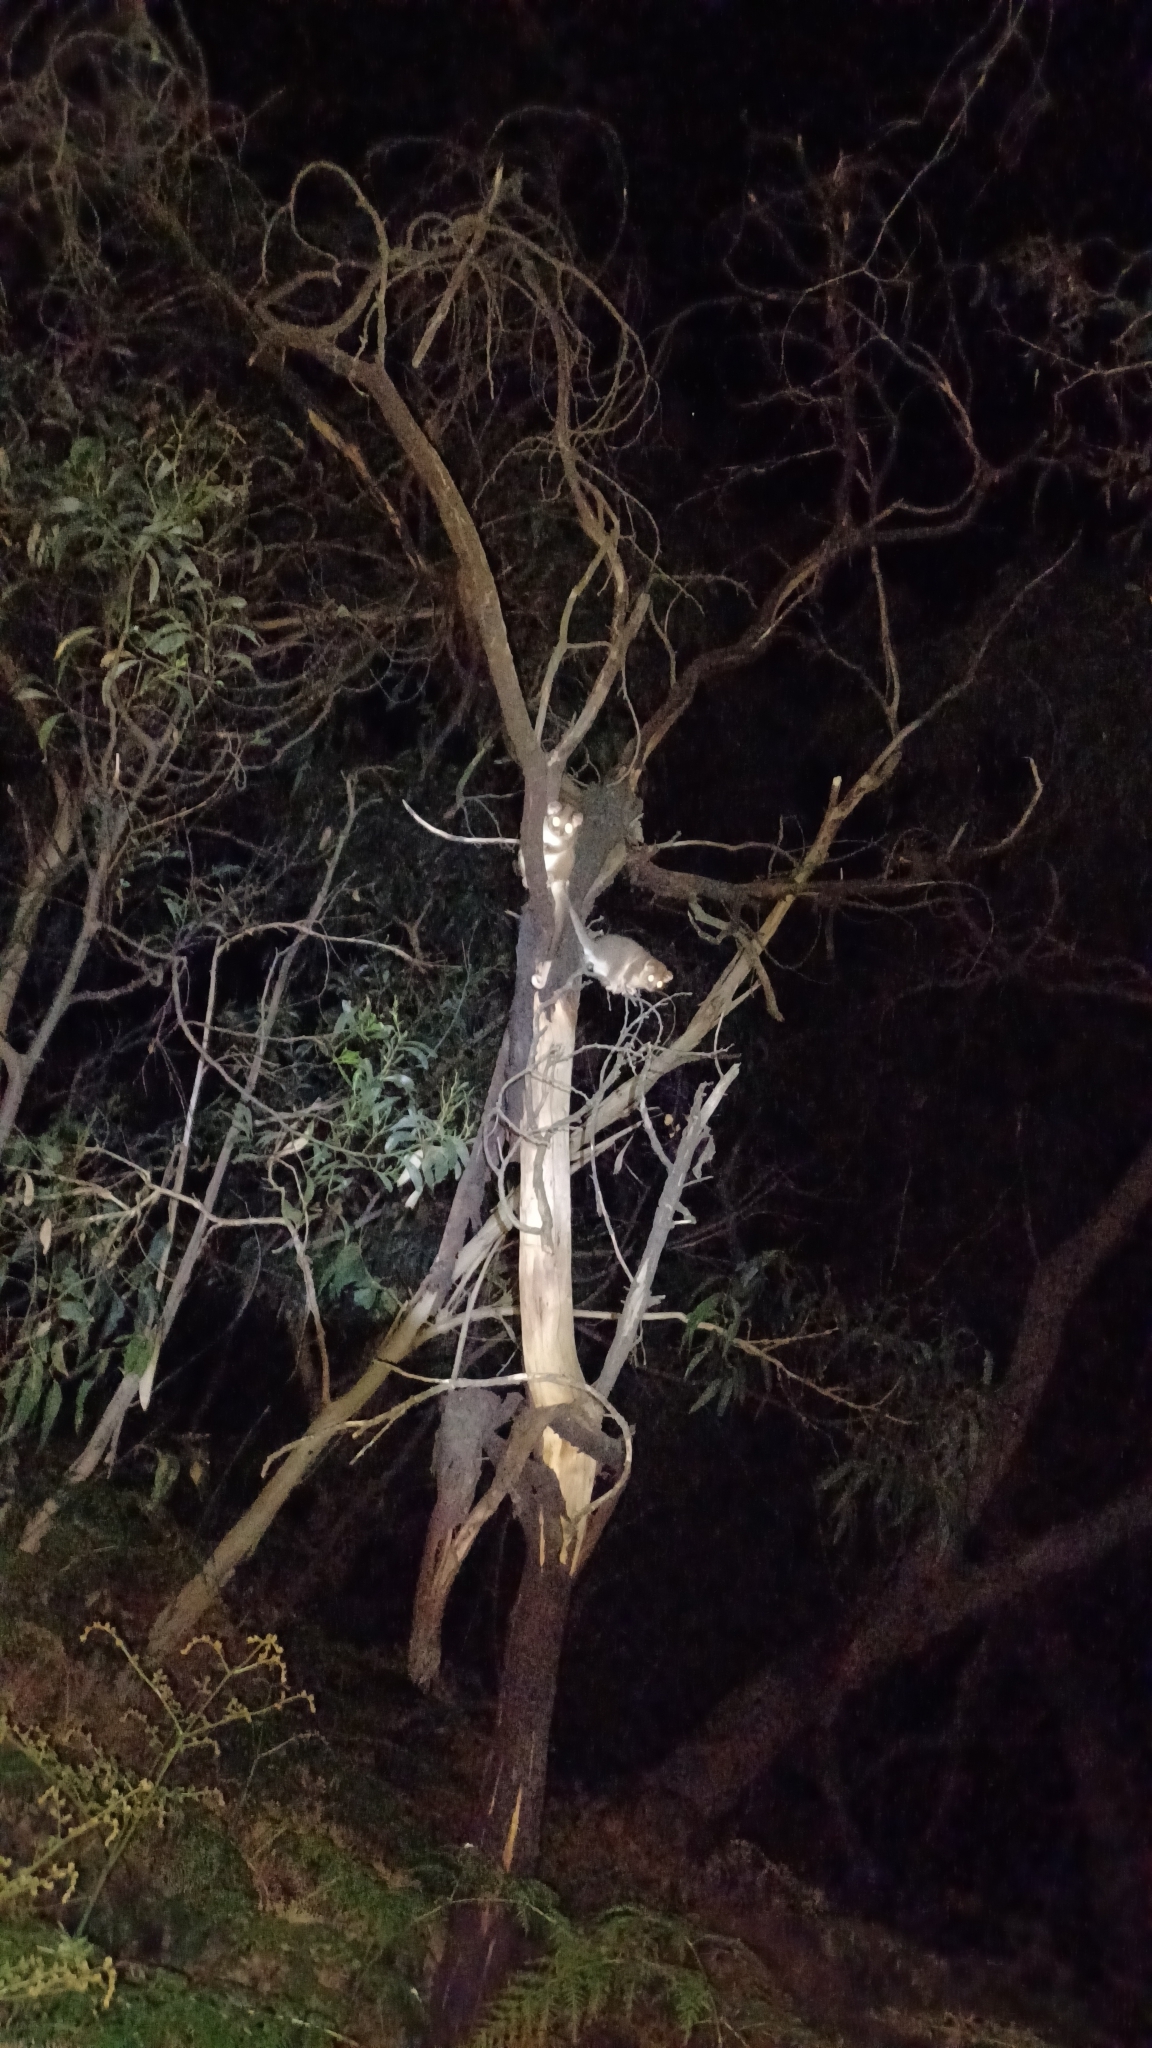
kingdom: Animalia
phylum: Chordata
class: Mammalia
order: Diprotodontia
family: Pseudocheiridae
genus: Pseudocheirus
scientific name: Pseudocheirus peregrinus
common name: Common ringtail possum
